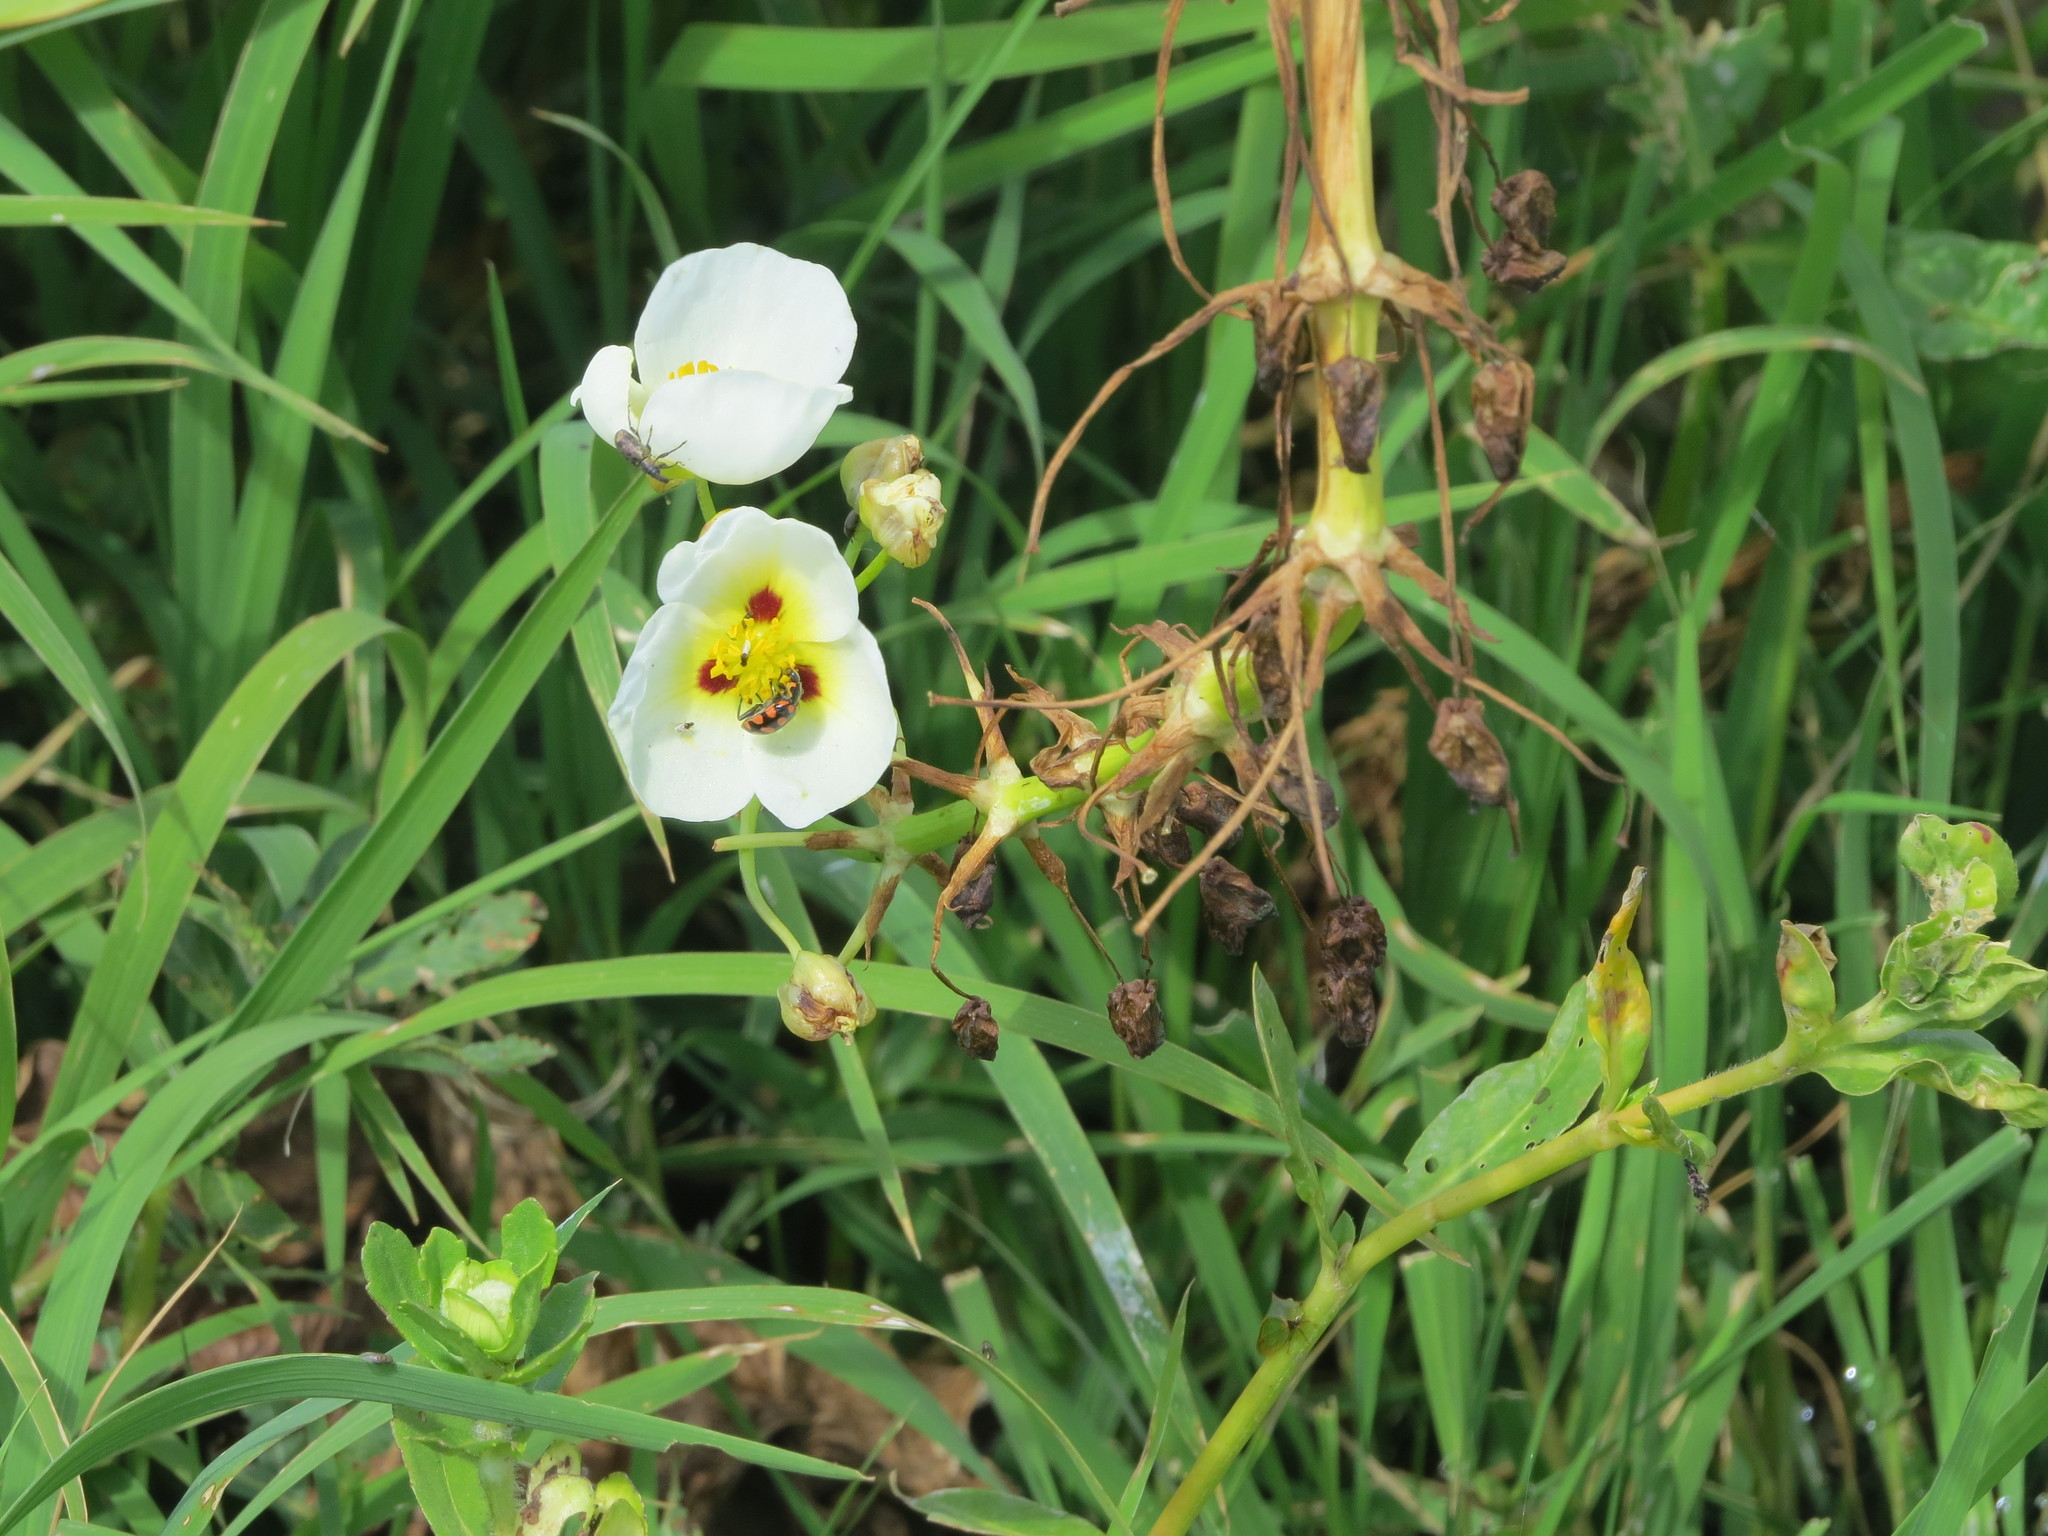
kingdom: Plantae
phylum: Tracheophyta
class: Liliopsida
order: Alismatales
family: Alismataceae
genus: Sagittaria
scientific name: Sagittaria montevidensis
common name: Giant arrowhead
